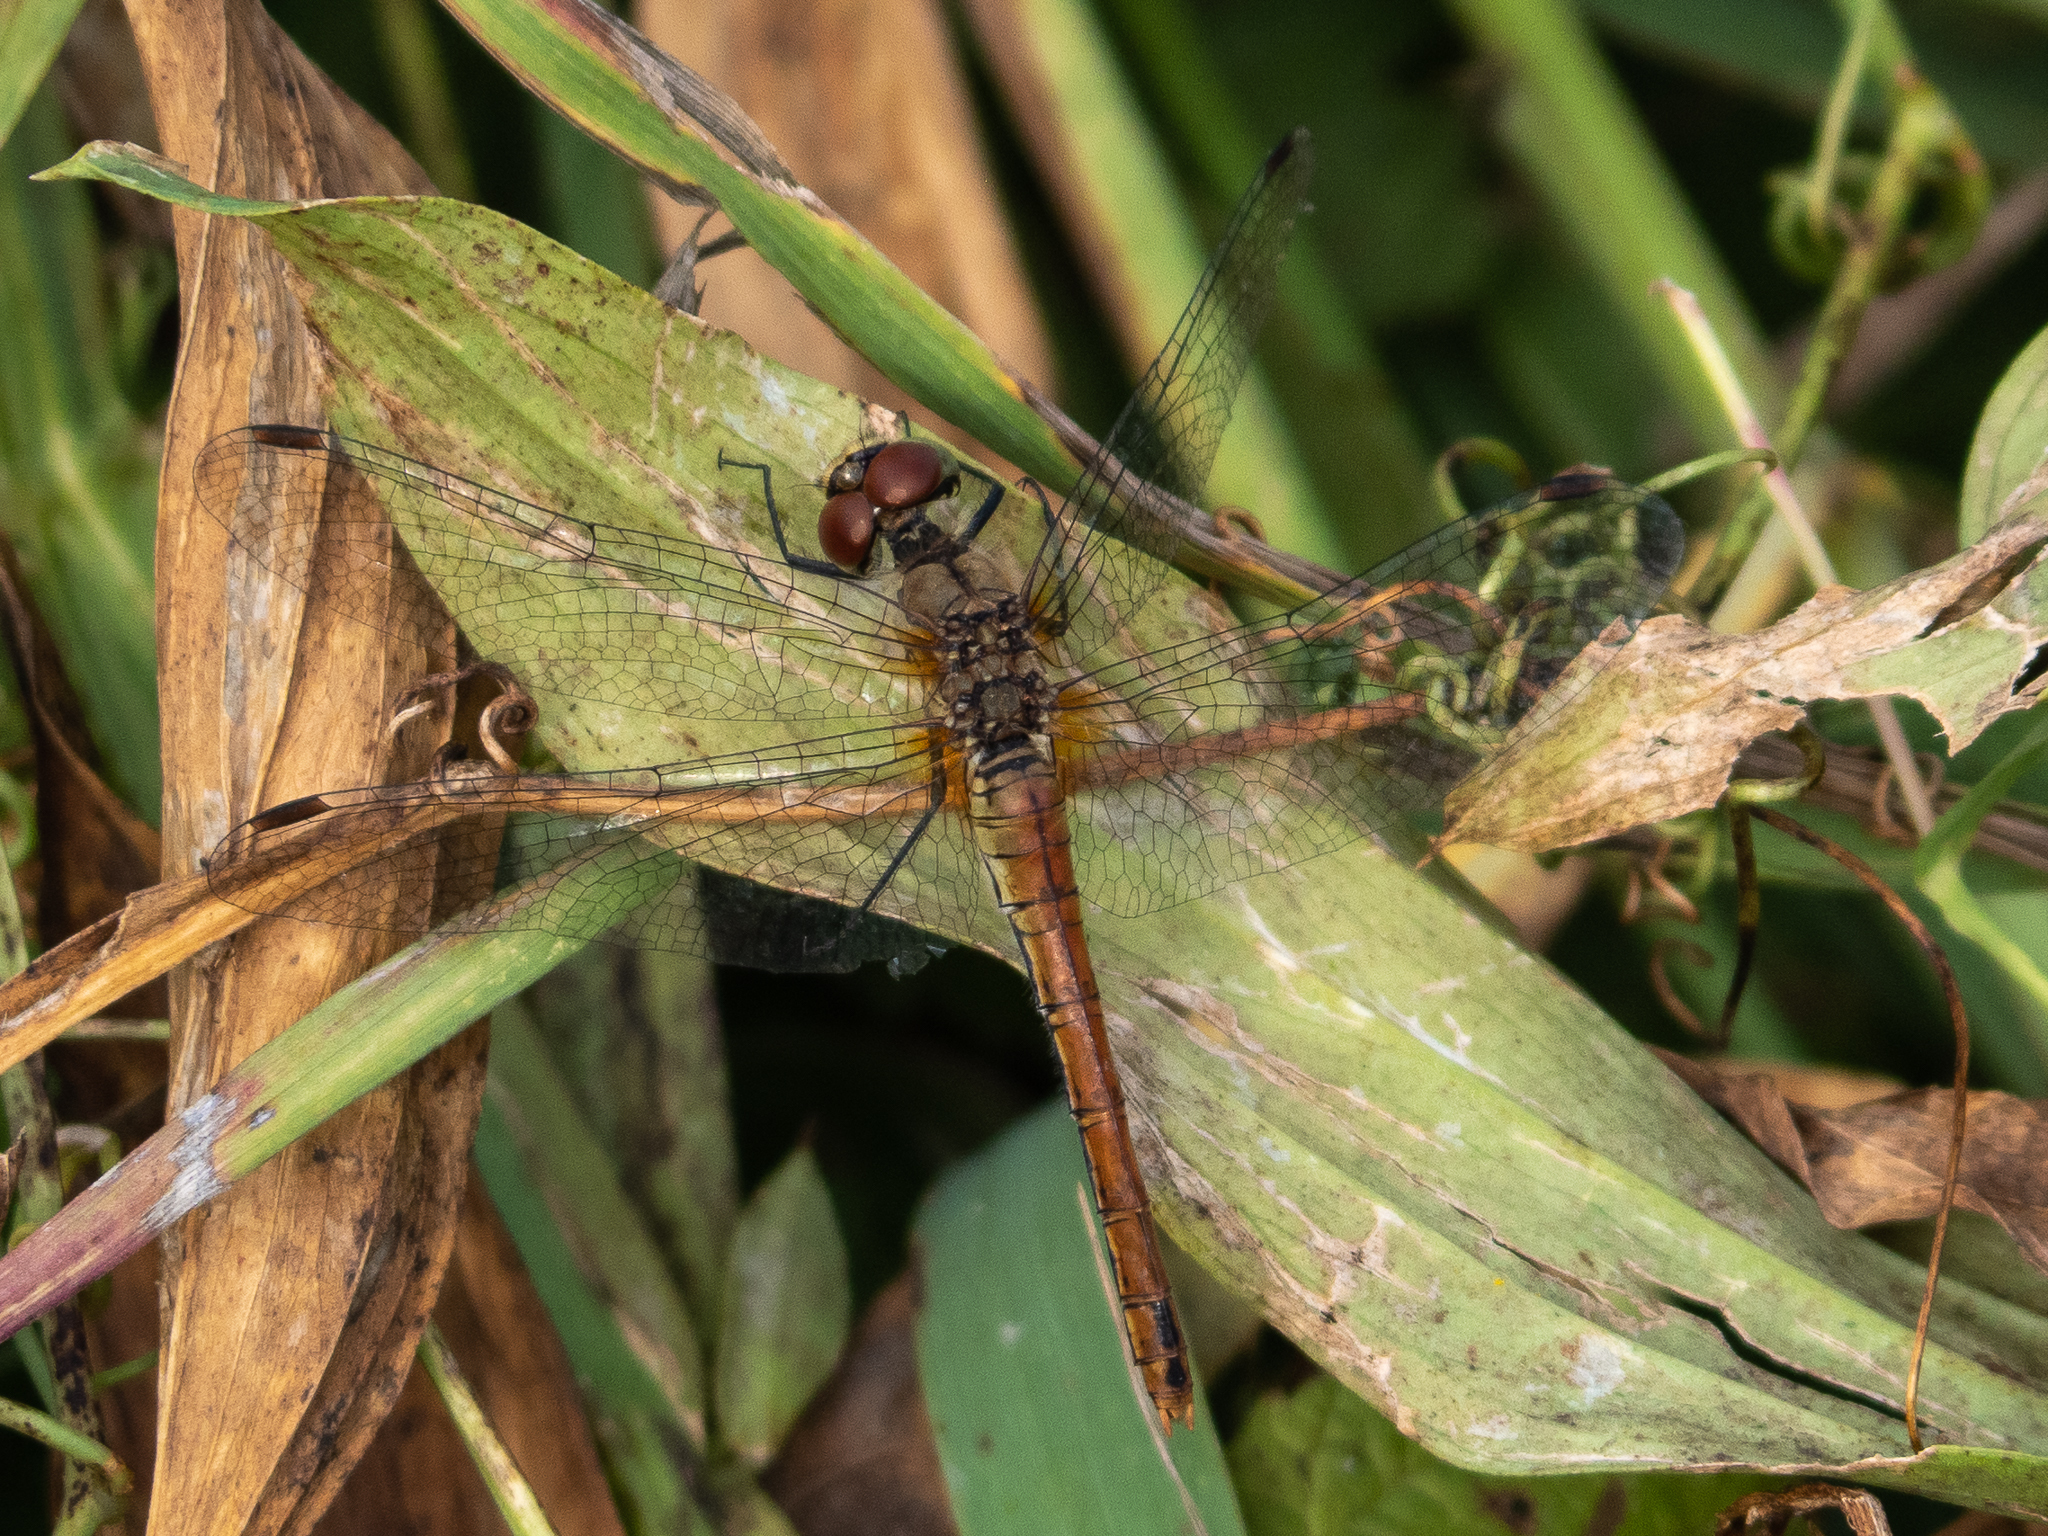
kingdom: Animalia
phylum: Arthropoda
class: Insecta
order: Odonata
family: Libellulidae
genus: Sympetrum
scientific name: Sympetrum sanguineum
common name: Ruddy darter
